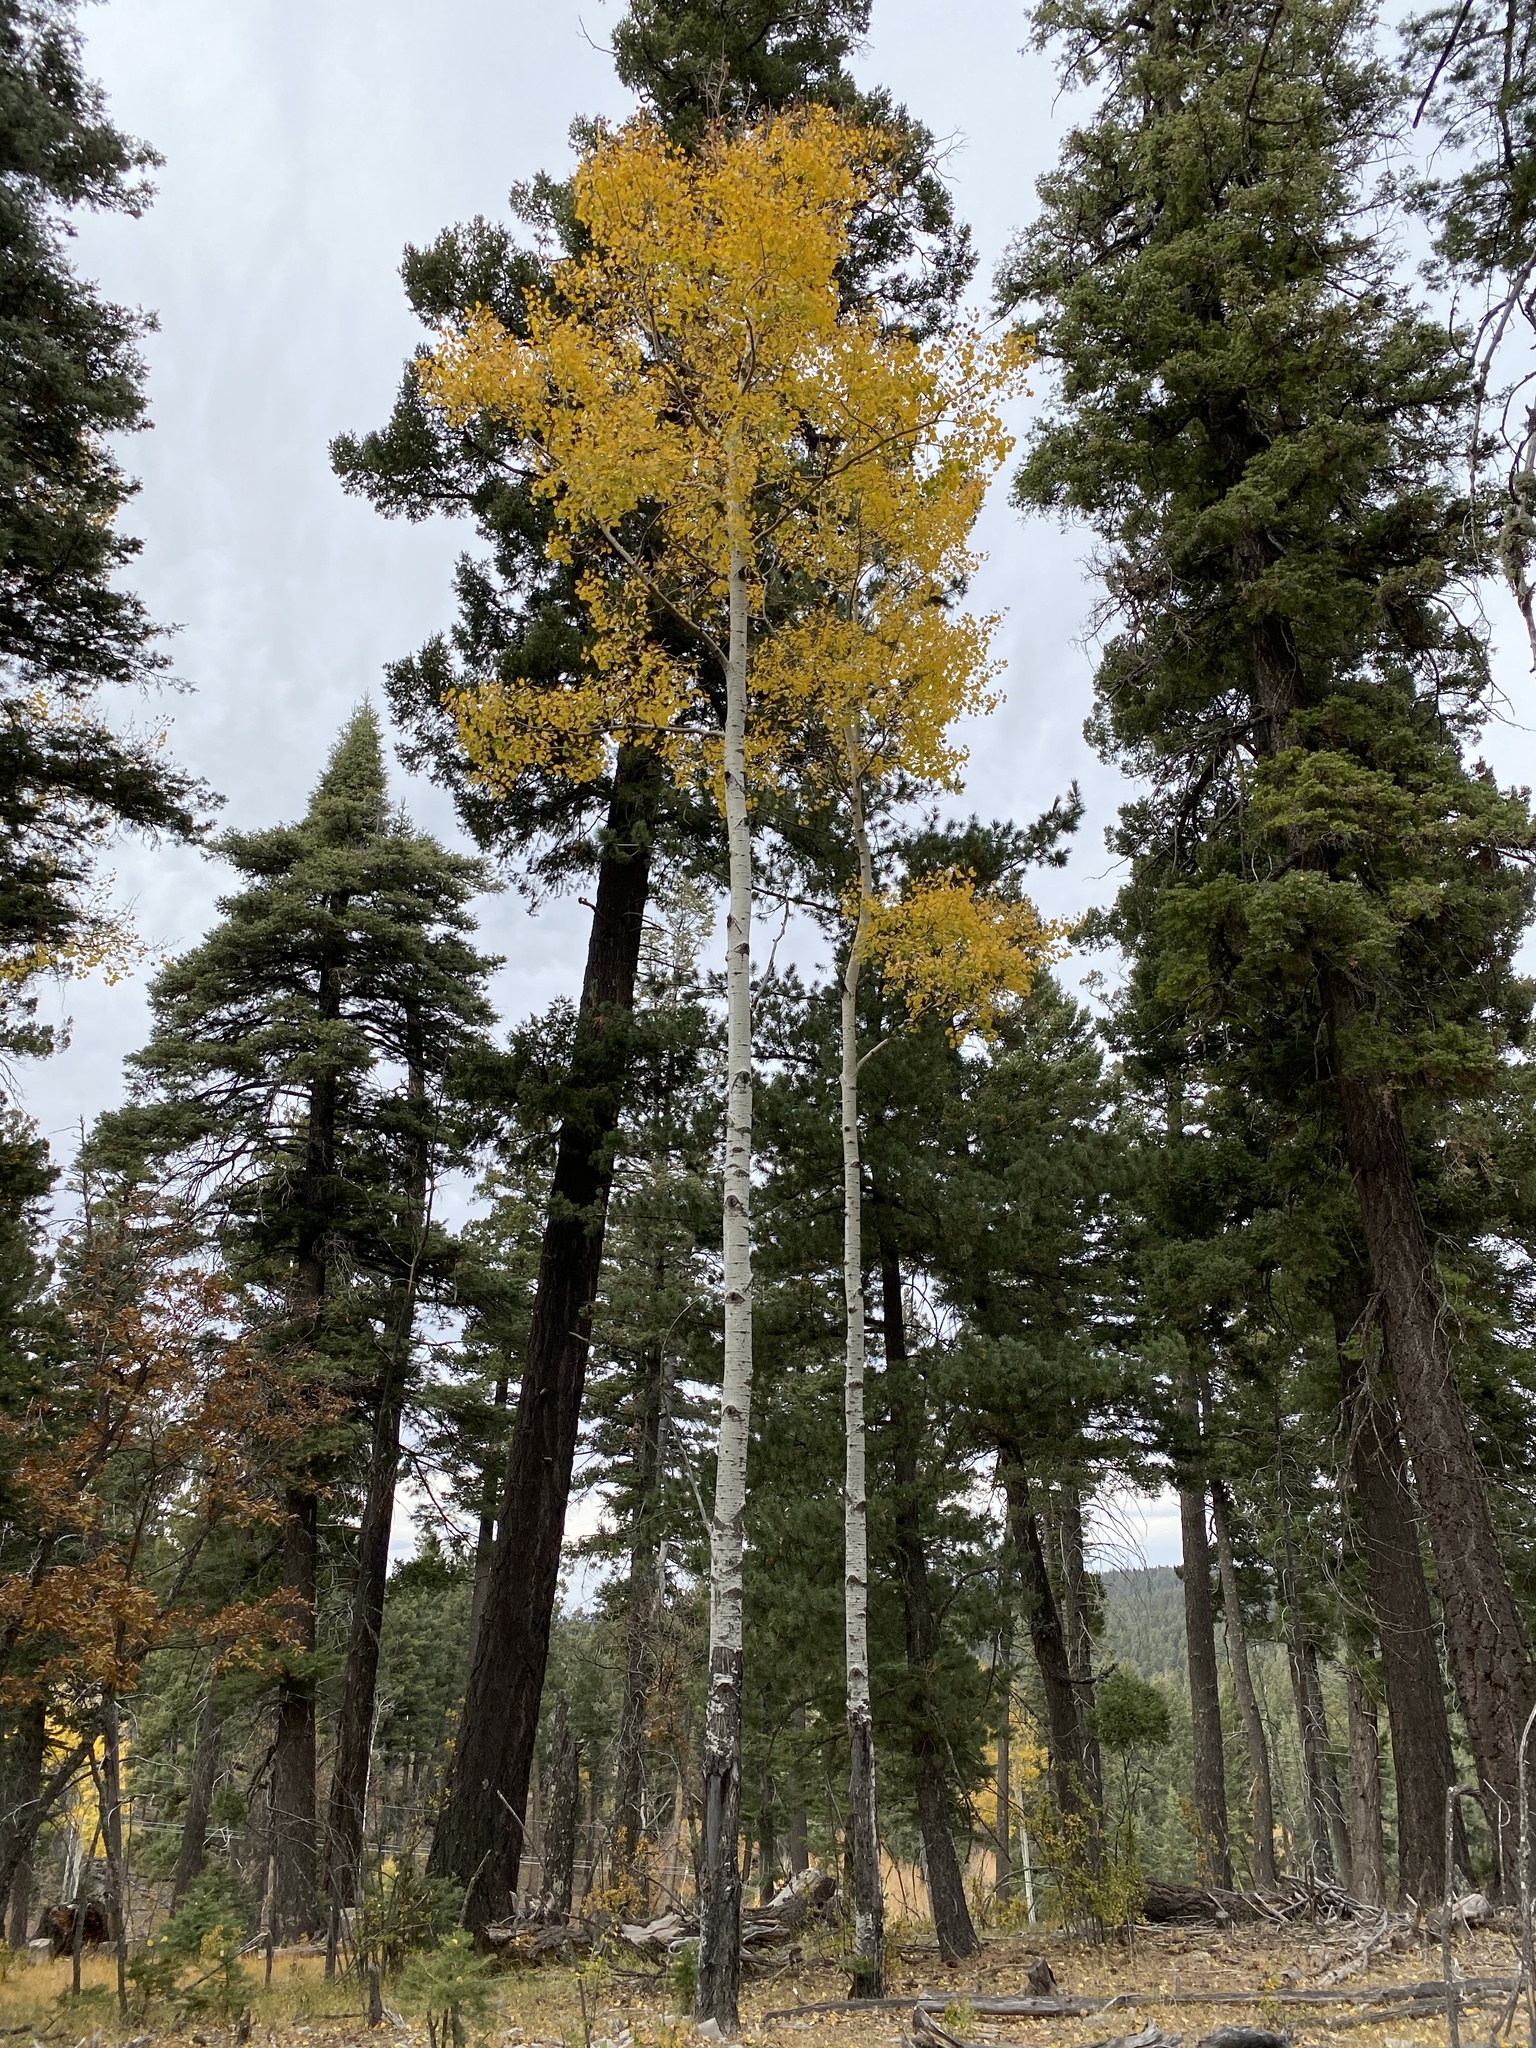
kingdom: Plantae
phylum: Tracheophyta
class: Magnoliopsida
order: Malpighiales
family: Salicaceae
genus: Populus
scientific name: Populus tremuloides
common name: Quaking aspen
